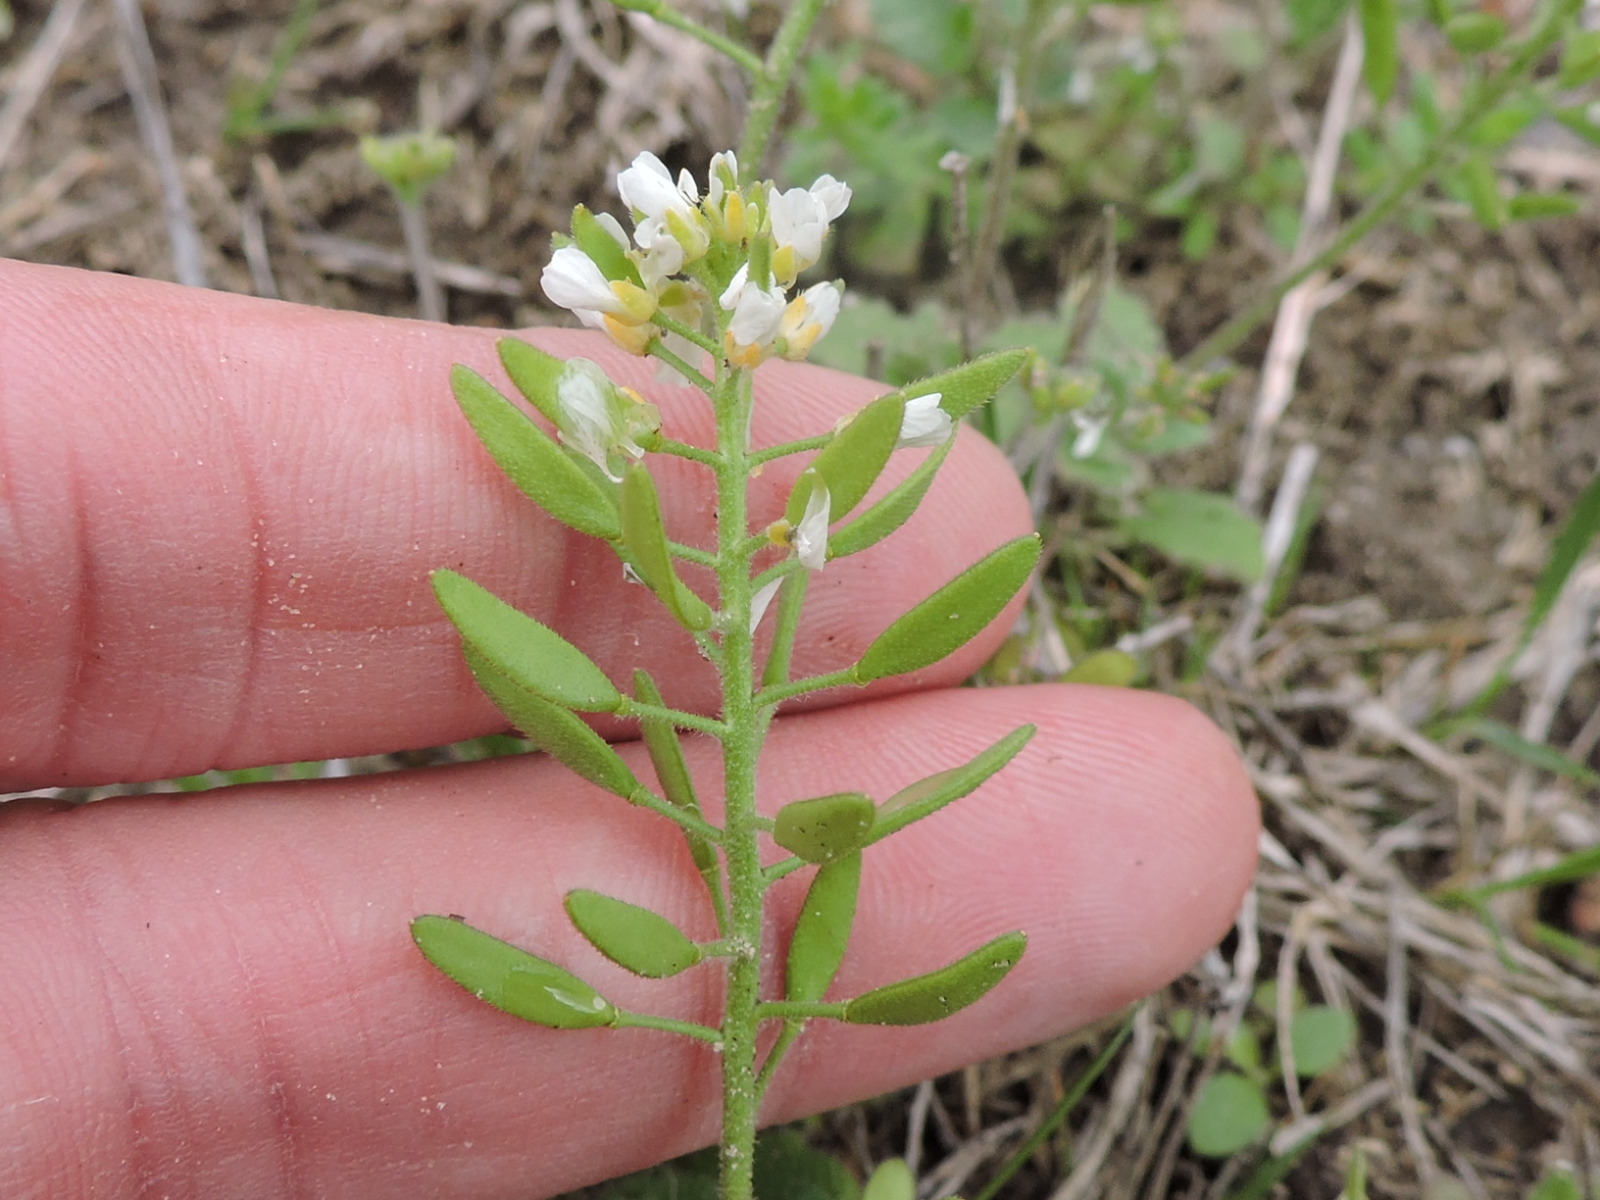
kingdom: Plantae
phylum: Tracheophyta
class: Magnoliopsida
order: Brassicales
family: Brassicaceae
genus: Tomostima
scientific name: Tomostima cuneifolia
